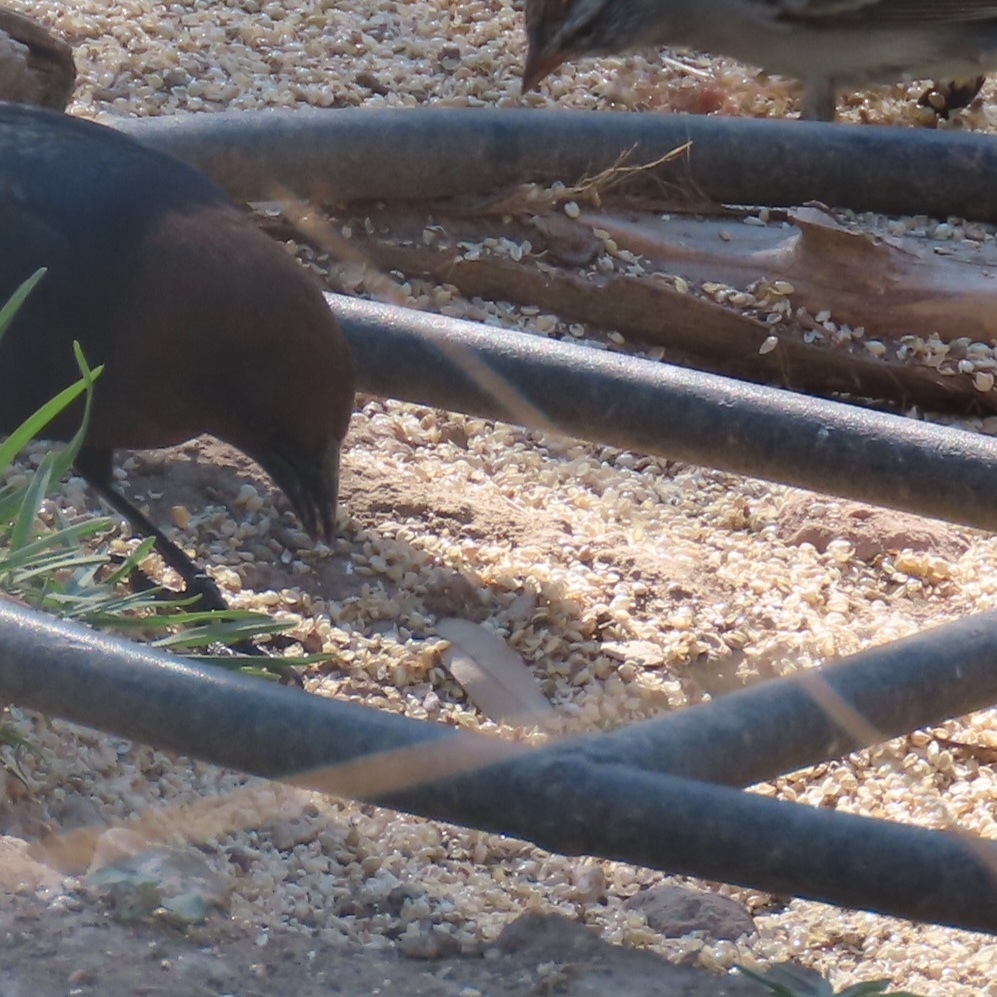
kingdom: Animalia
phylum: Chordata
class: Aves
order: Passeriformes
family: Icteridae
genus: Molothrus
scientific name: Molothrus ater
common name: Brown-headed cowbird
